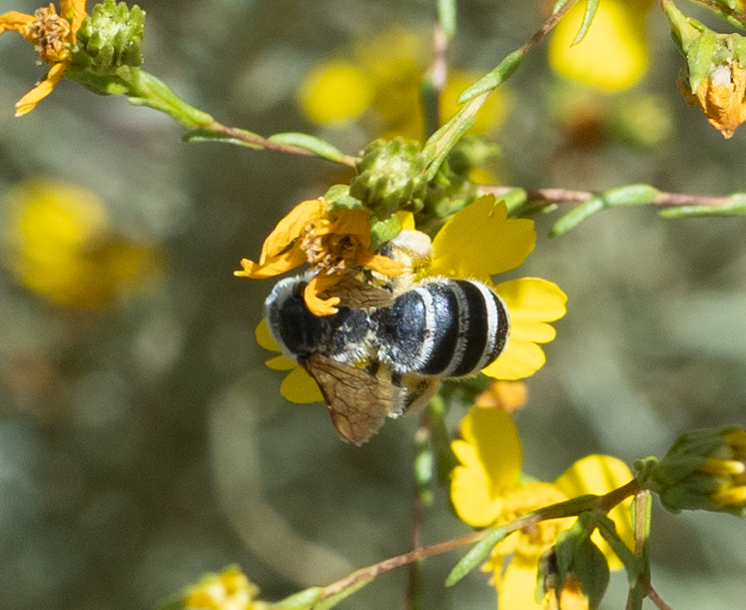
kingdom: Animalia
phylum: Arthropoda
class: Insecta
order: Hymenoptera
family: Halictidae
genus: Halictus
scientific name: Halictus farinosus
